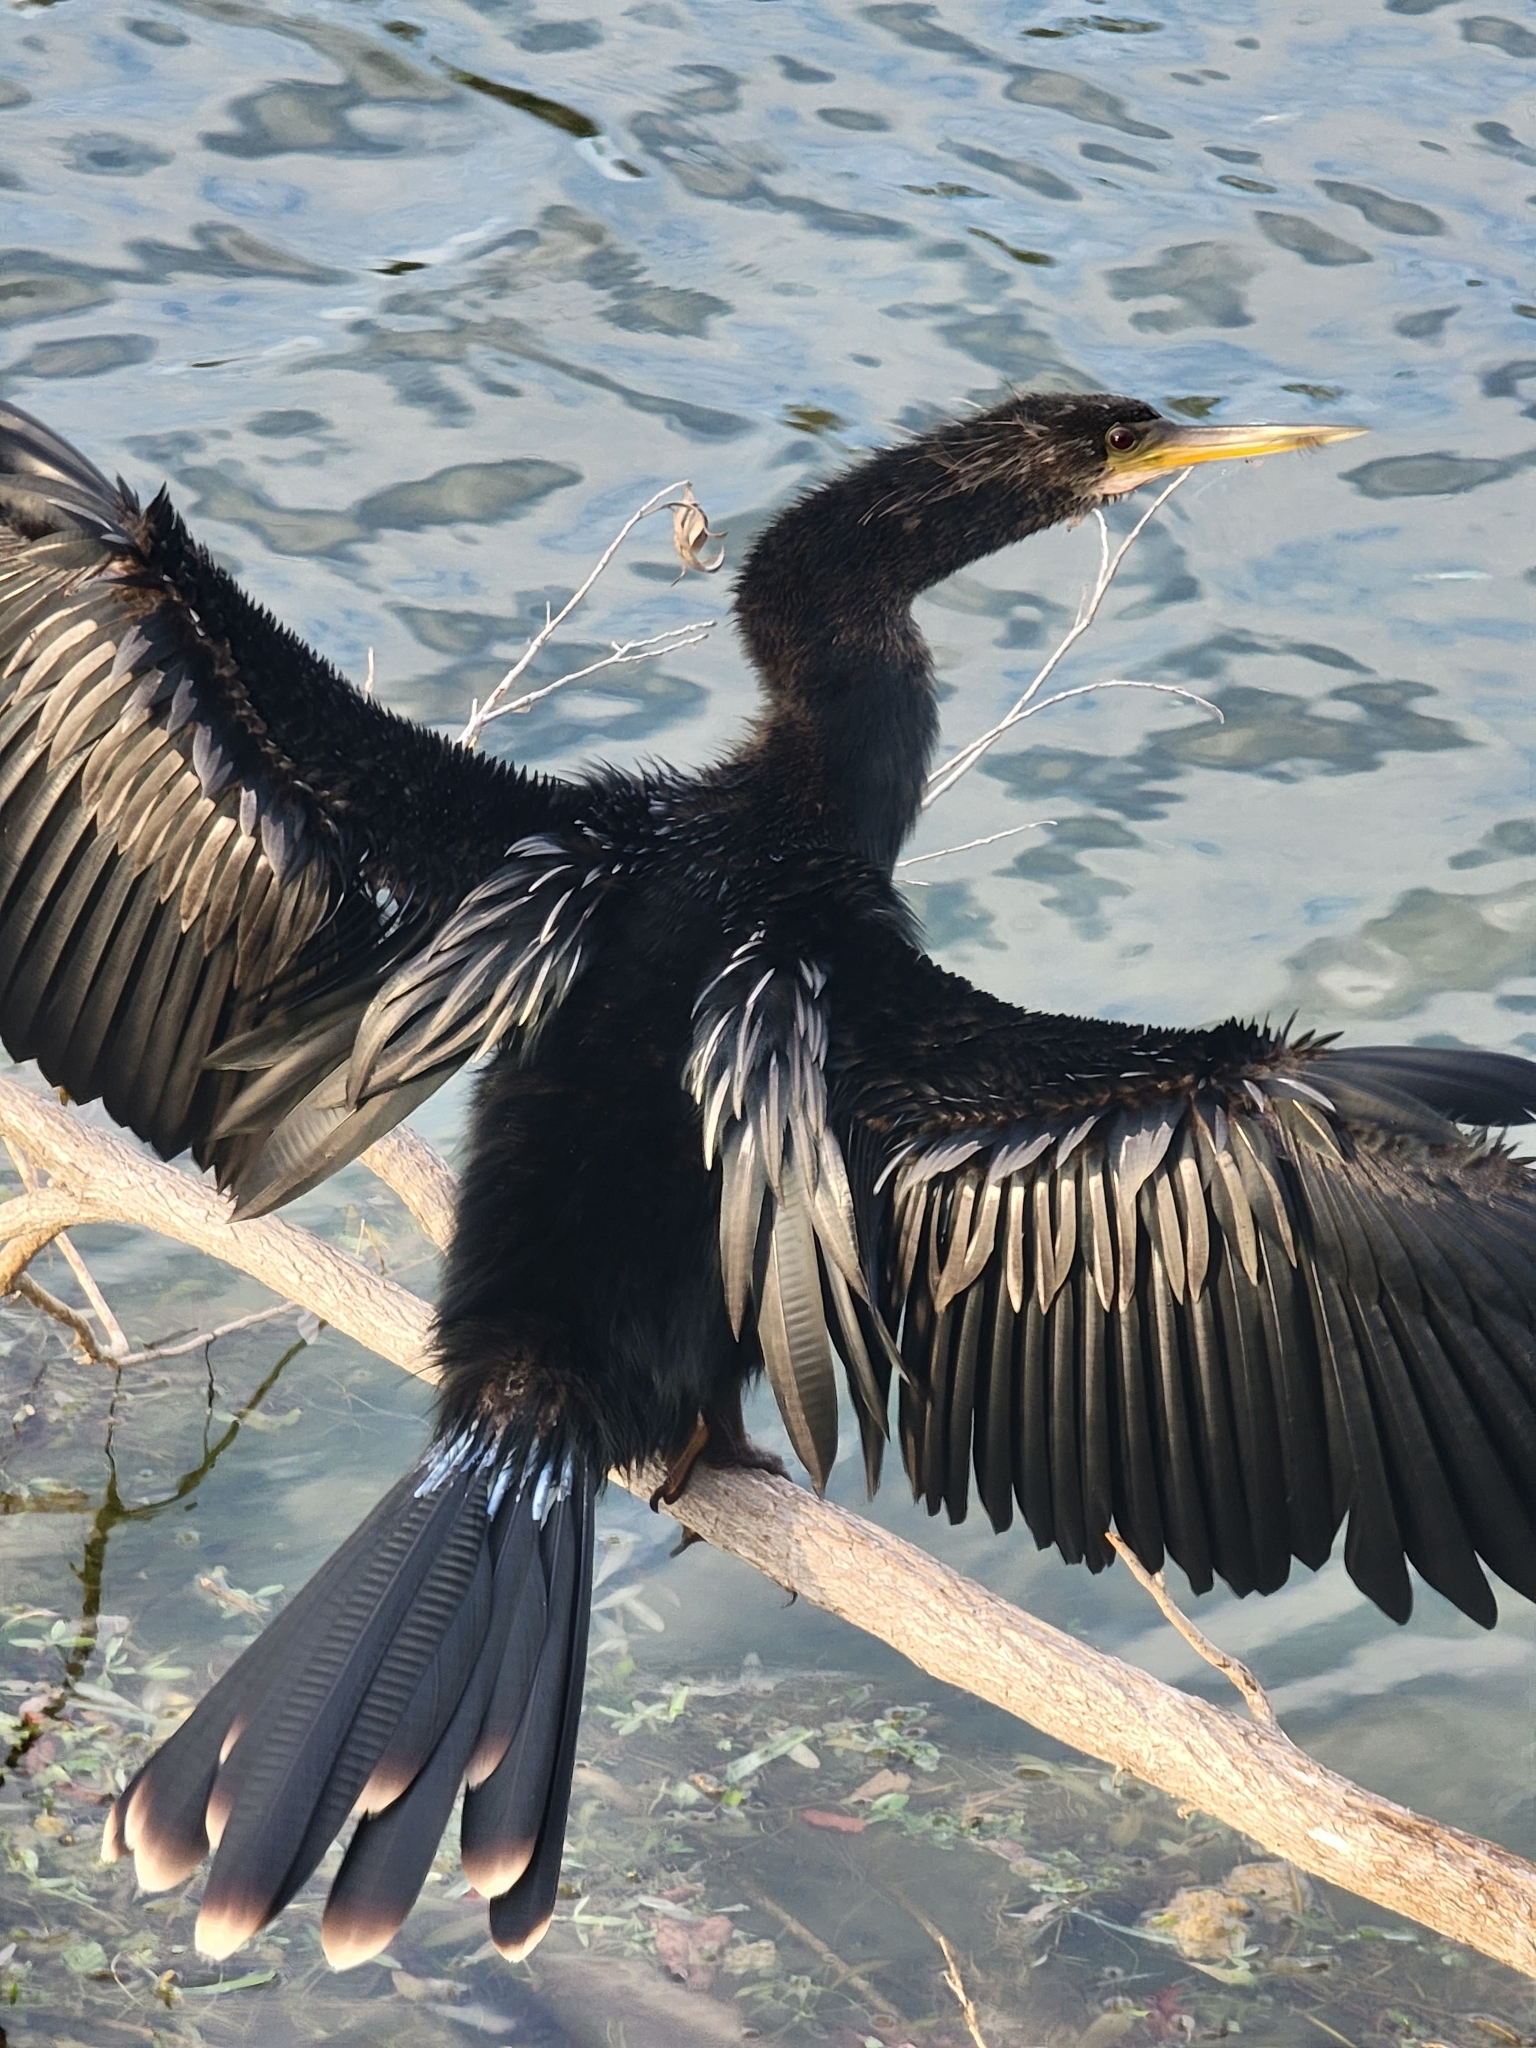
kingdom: Animalia
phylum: Chordata
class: Aves
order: Suliformes
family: Anhingidae
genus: Anhinga
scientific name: Anhinga anhinga
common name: Anhinga
